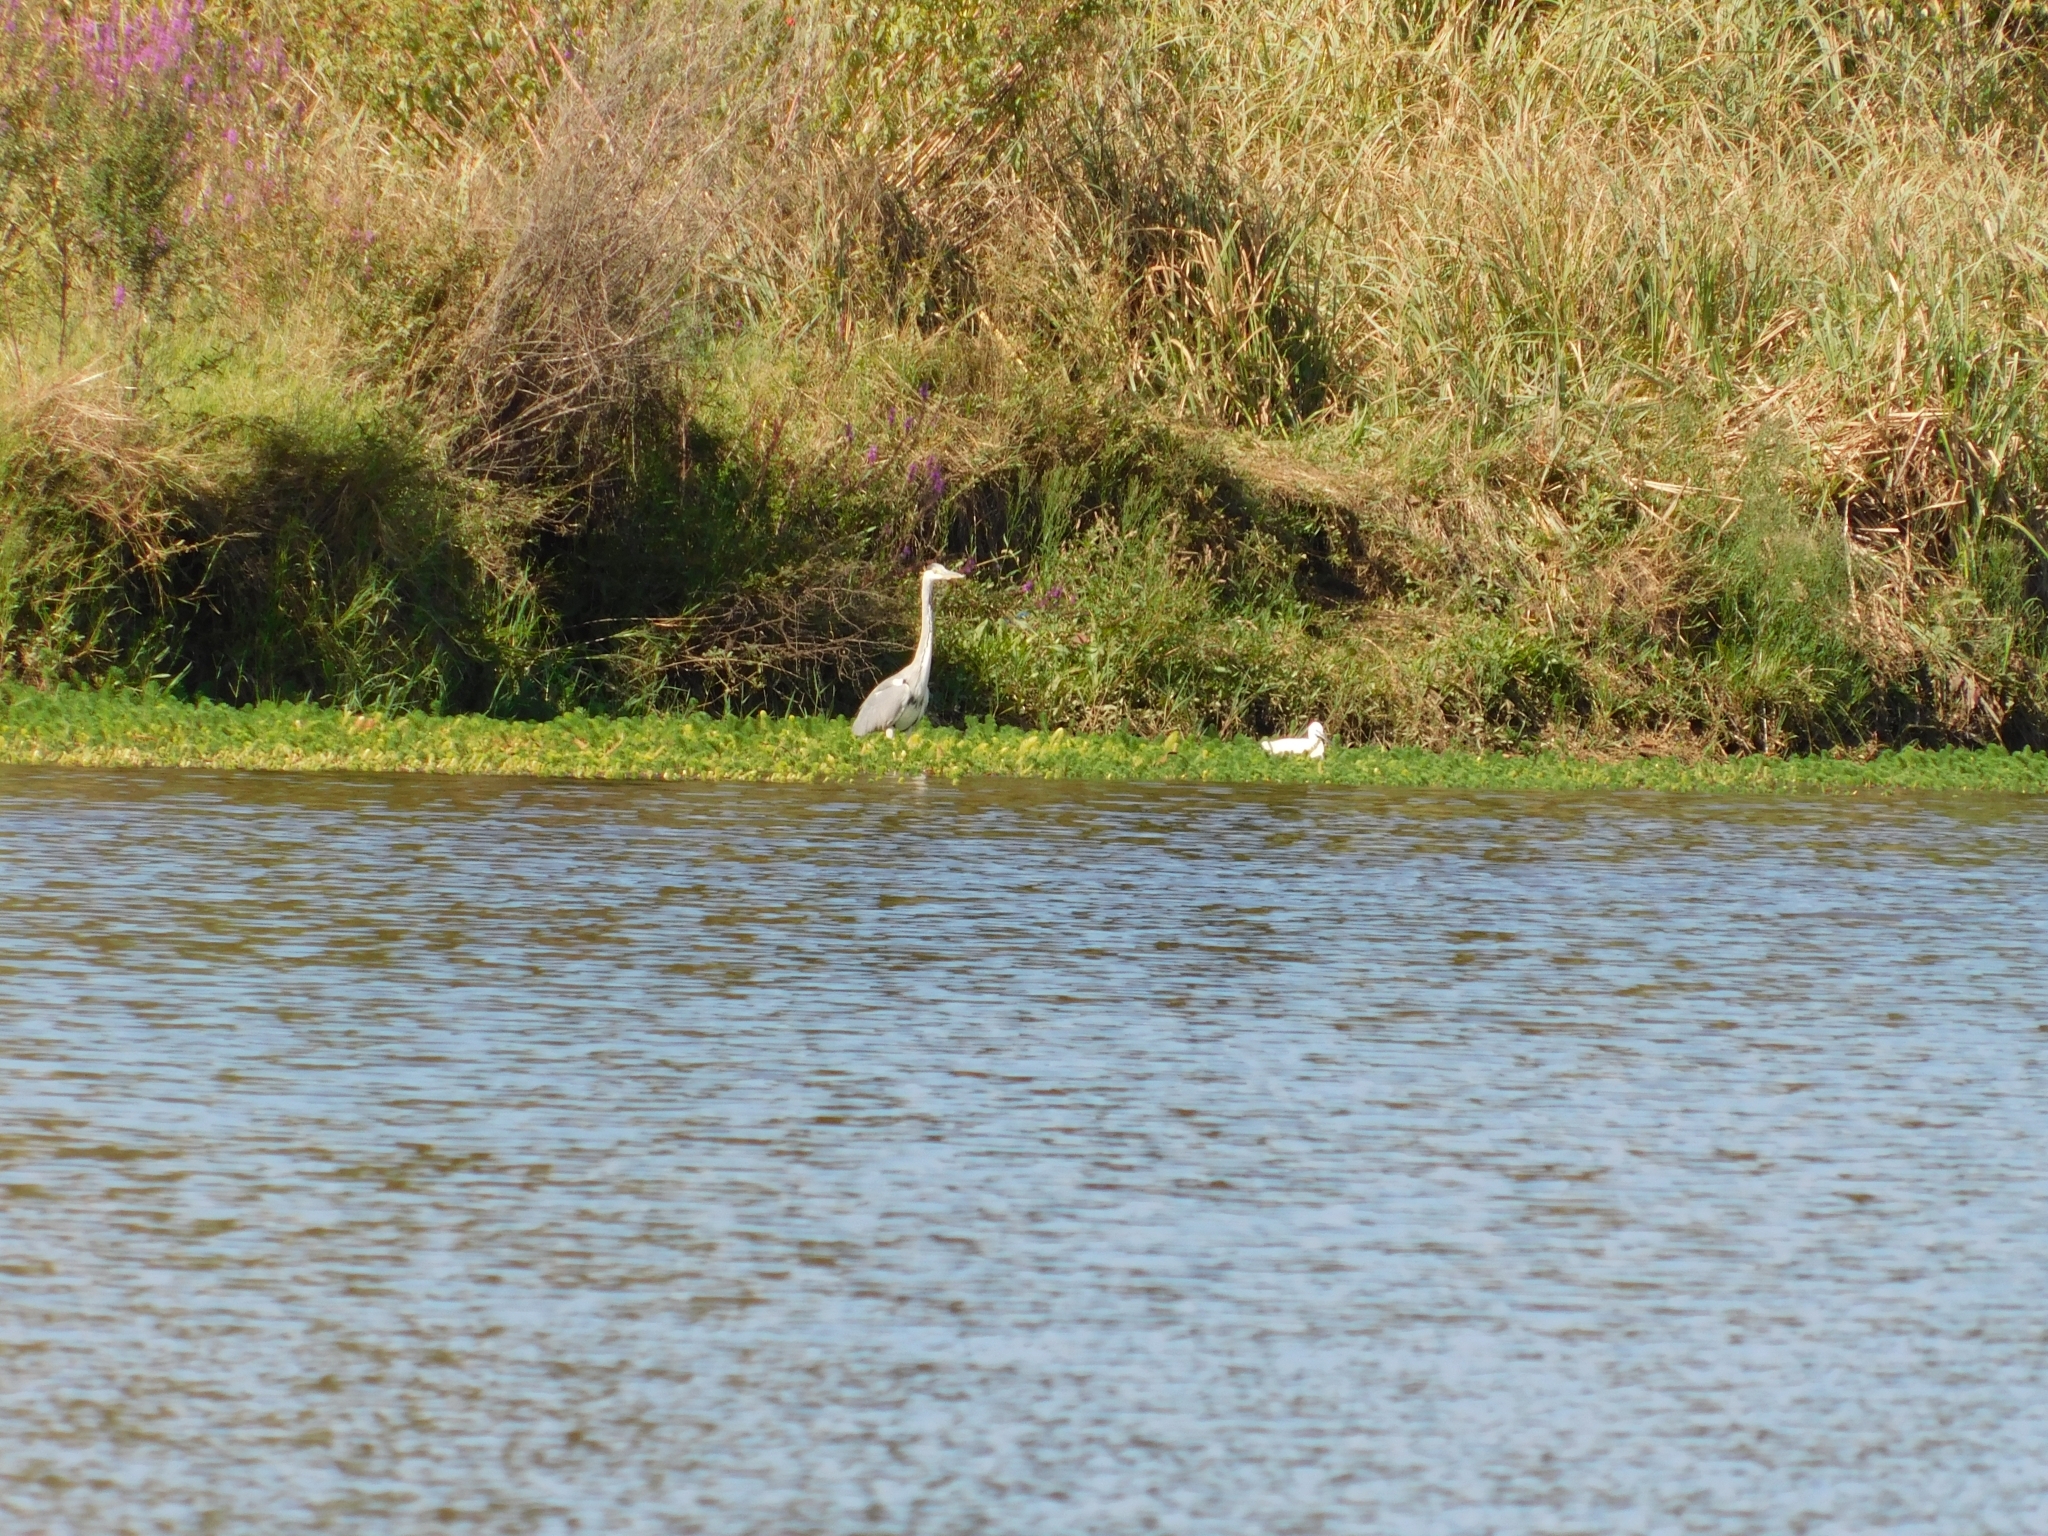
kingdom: Animalia
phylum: Chordata
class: Aves
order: Pelecaniformes
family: Ardeidae
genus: Egretta
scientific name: Egretta garzetta
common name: Little egret
